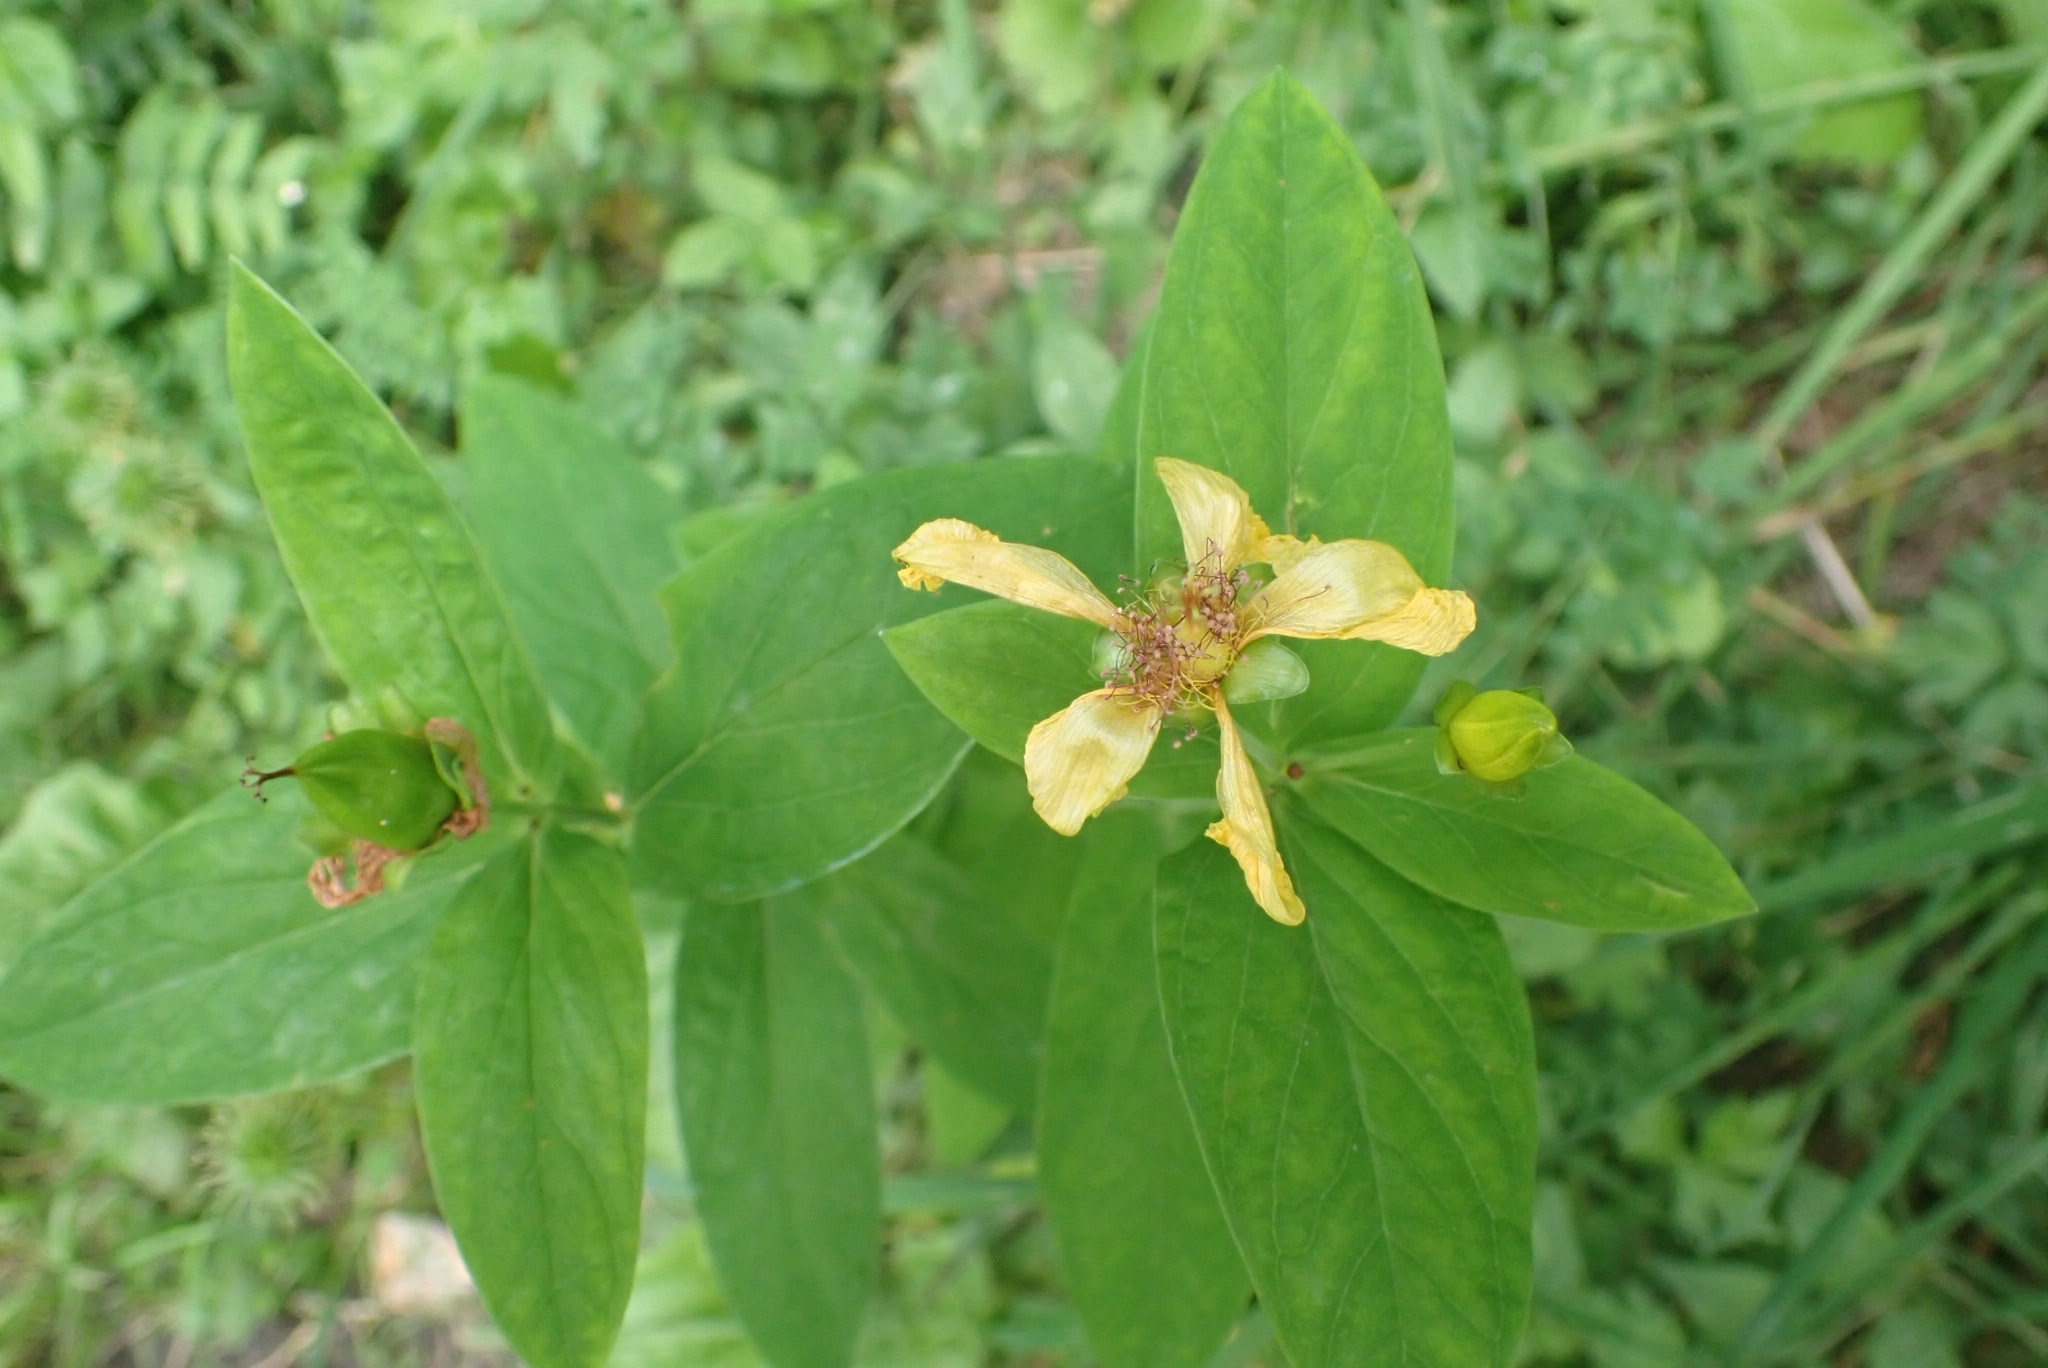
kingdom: Plantae
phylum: Tracheophyta
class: Magnoliopsida
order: Malpighiales
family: Hypericaceae
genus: Hypericum
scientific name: Hypericum ascyron
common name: Giant st. john's-wort
